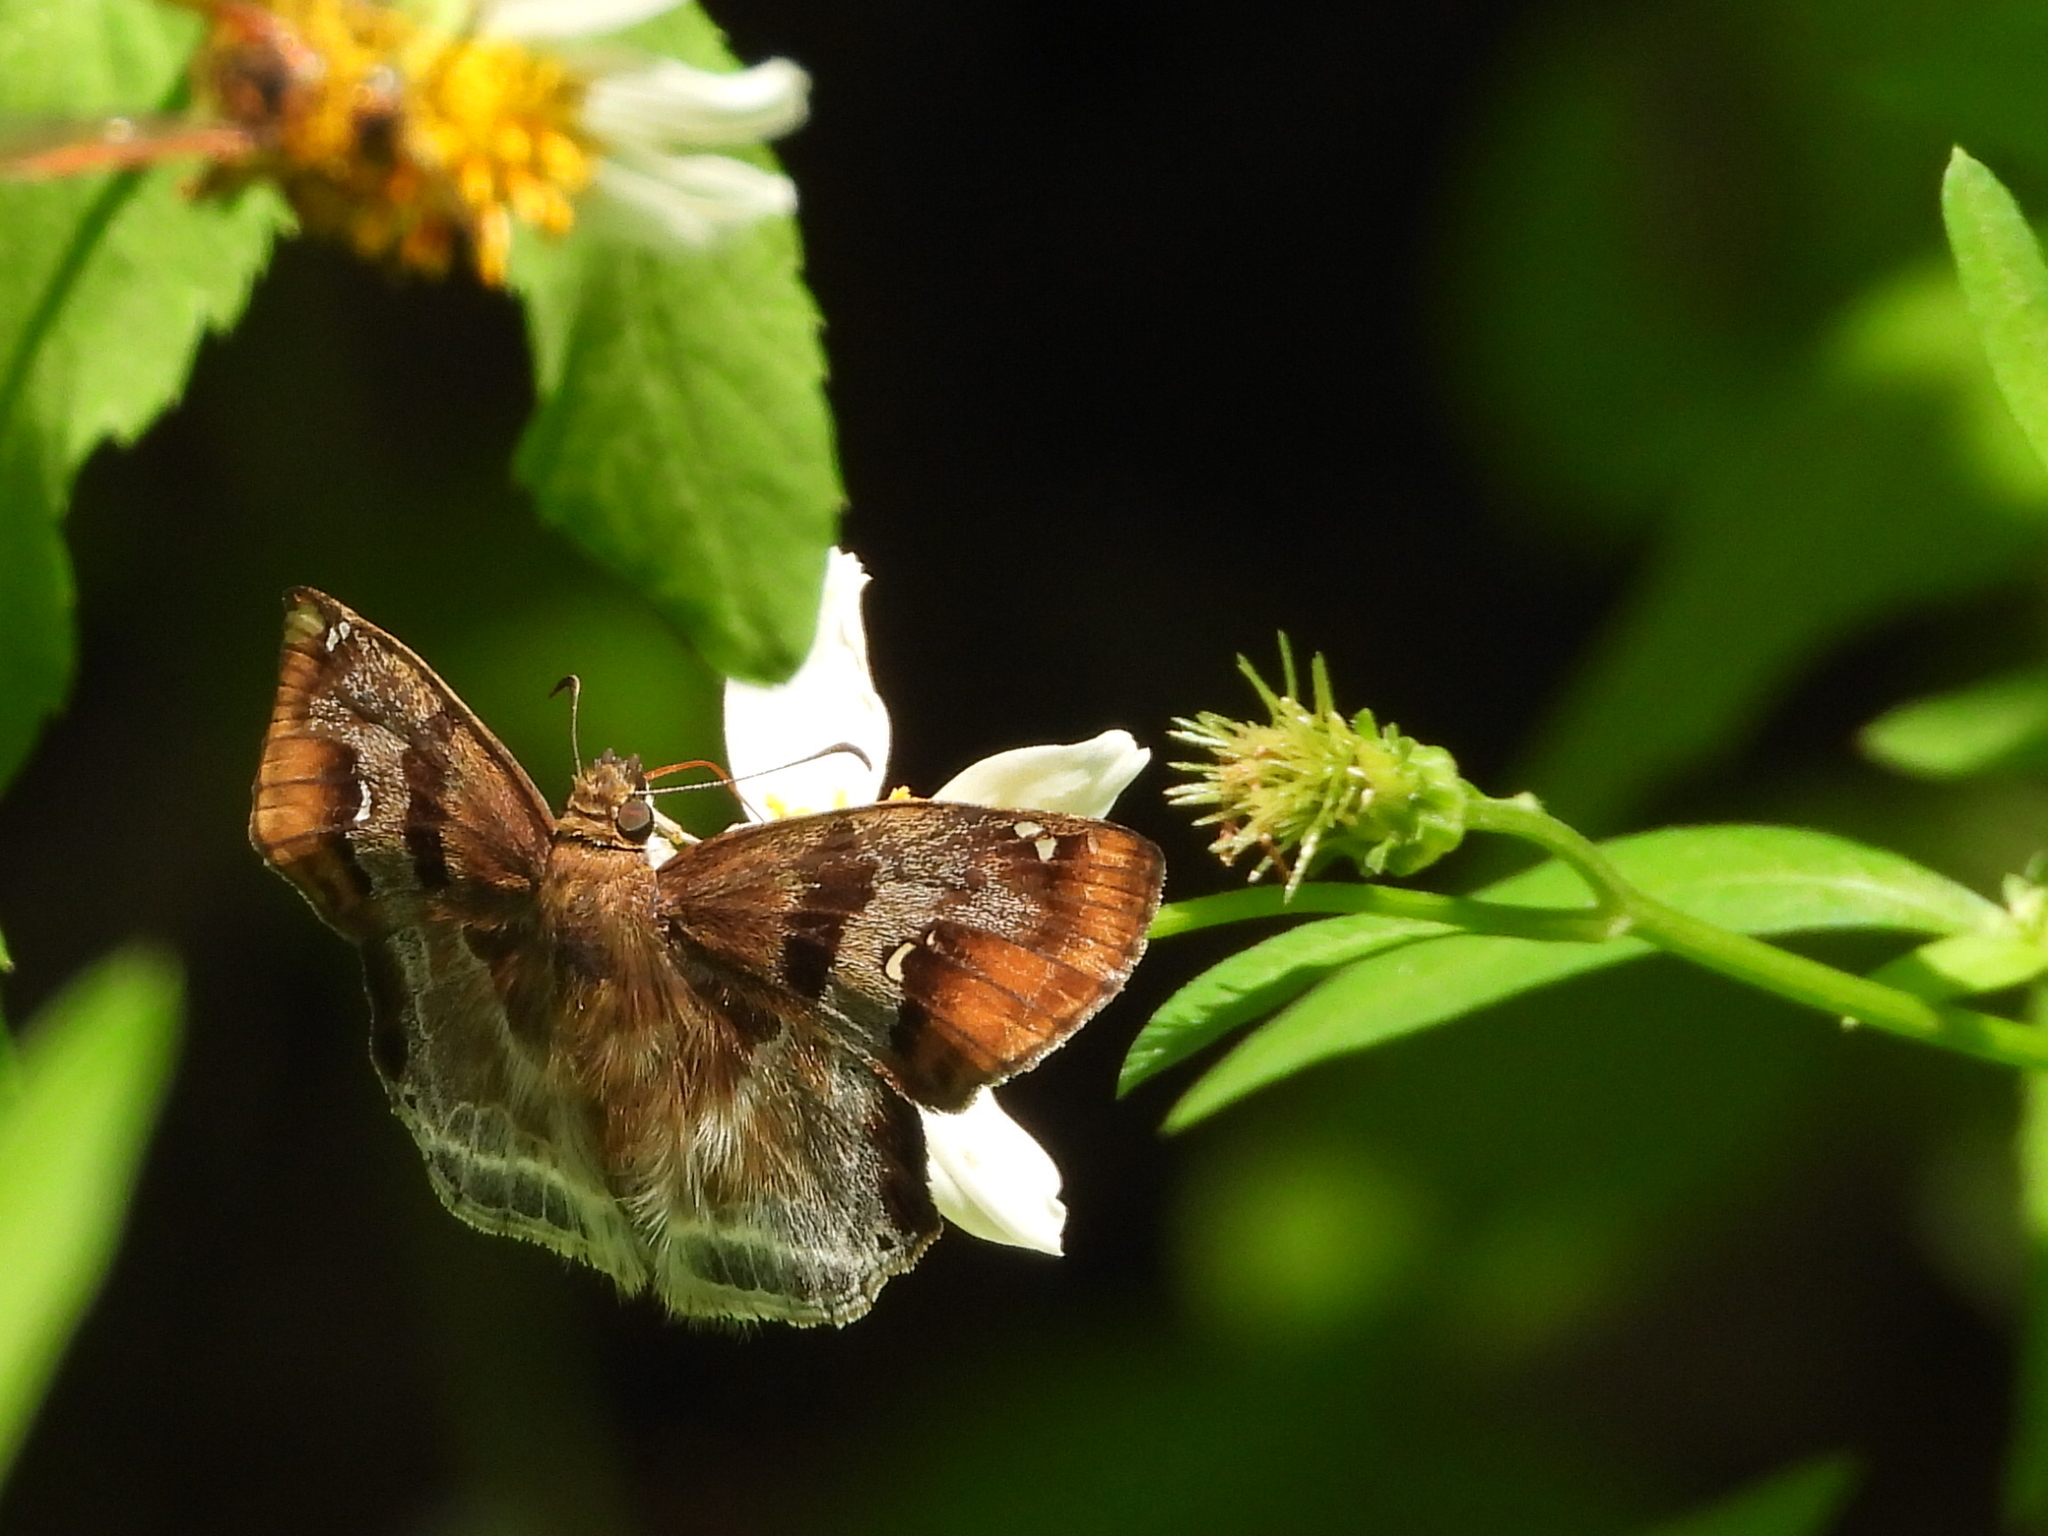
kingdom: Animalia
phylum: Arthropoda
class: Insecta
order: Lepidoptera
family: Hesperiidae
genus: Odontoptilum
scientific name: Odontoptilum angulata
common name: Chestnut banded angle
